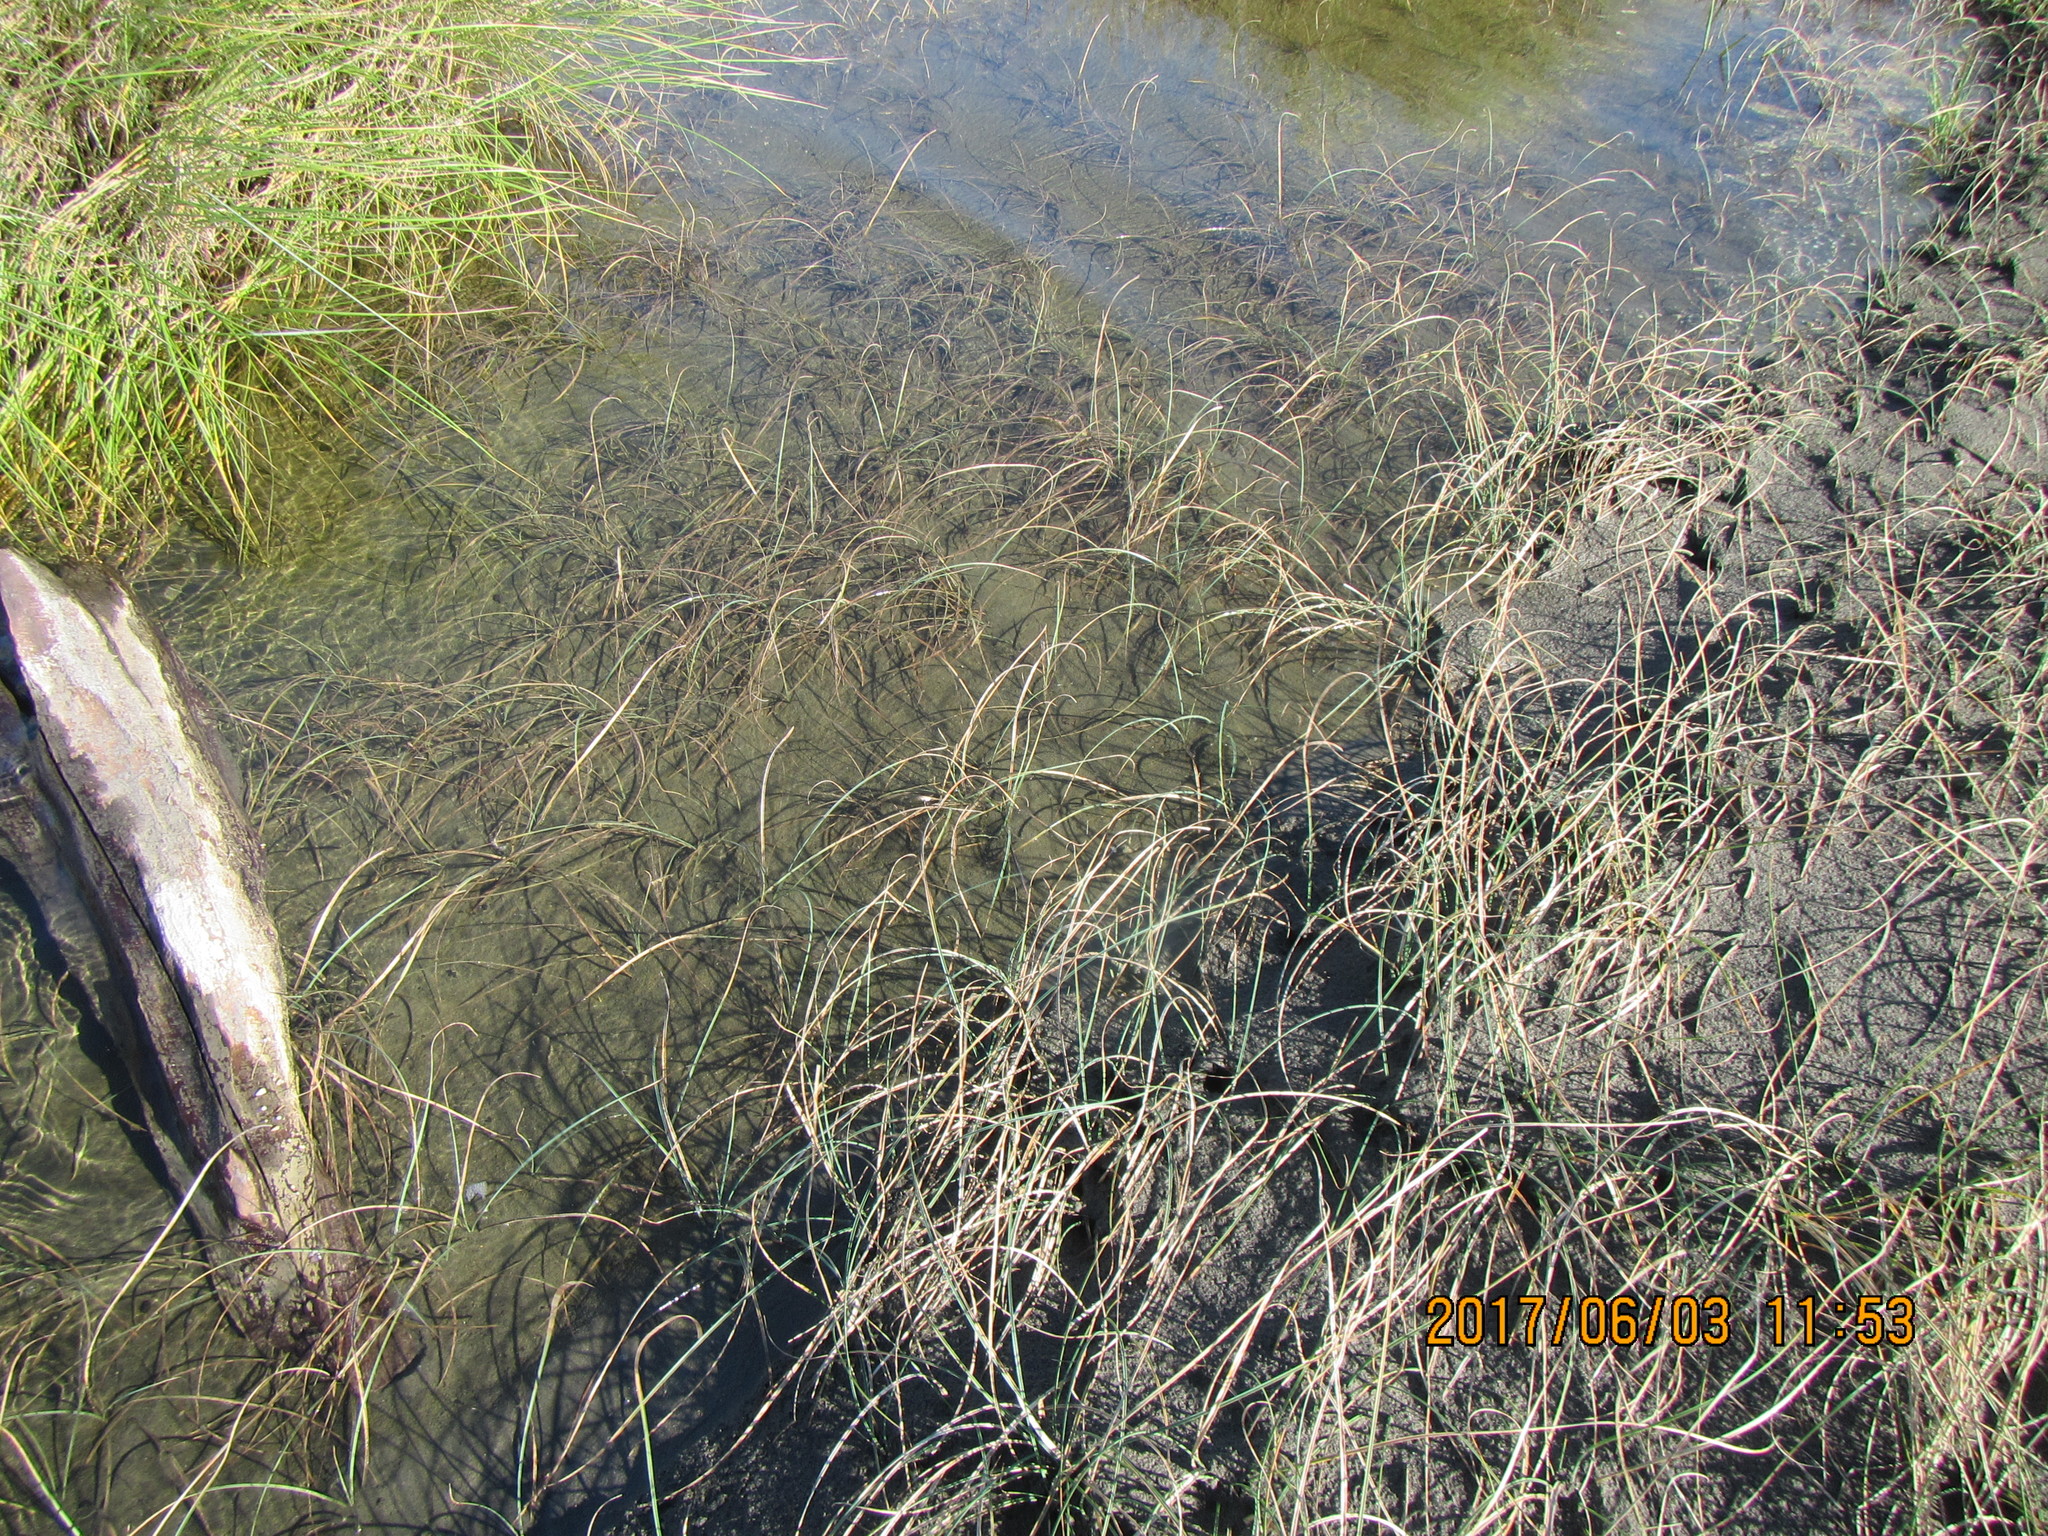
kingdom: Plantae
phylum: Tracheophyta
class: Liliopsida
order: Poales
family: Cyperaceae
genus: Carex
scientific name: Carex pumila
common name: Dwarf sedge
